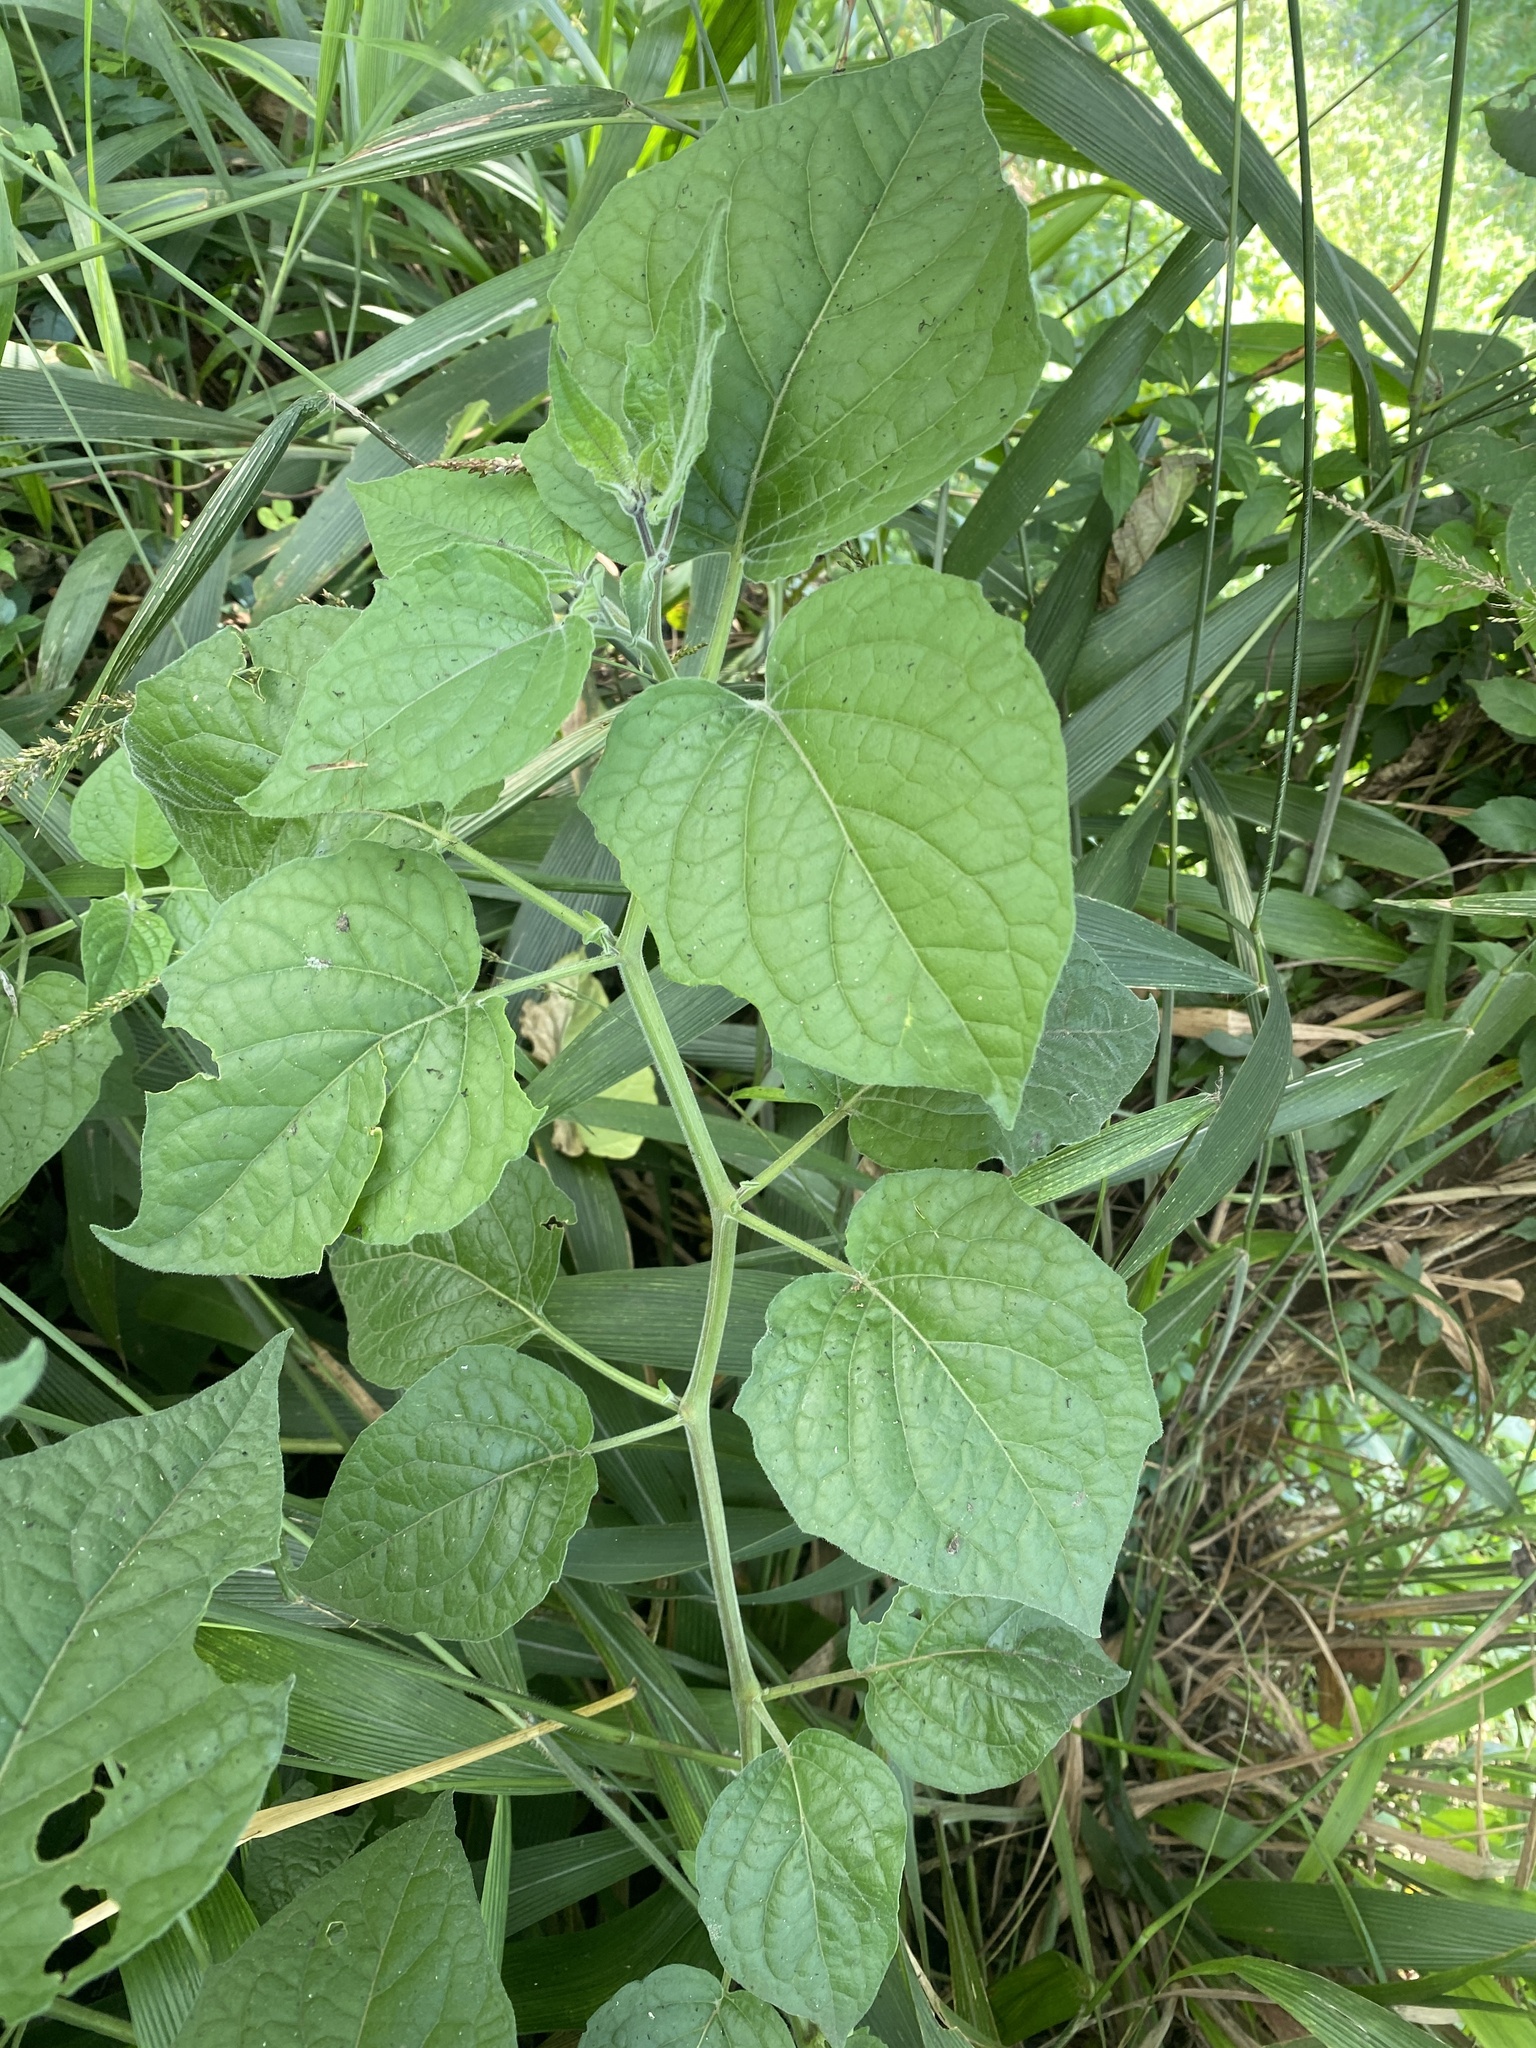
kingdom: Plantae
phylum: Tracheophyta
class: Magnoliopsida
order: Solanales
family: Solanaceae
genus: Physalis
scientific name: Physalis peruviana
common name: Cape-gooseberry
